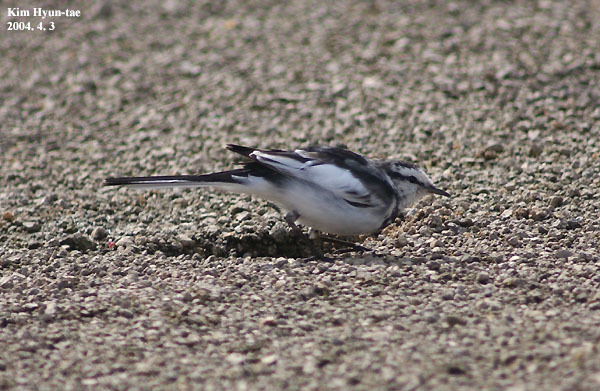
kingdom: Animalia
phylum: Chordata
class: Aves
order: Passeriformes
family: Motacillidae
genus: Motacilla
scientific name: Motacilla alba
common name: White wagtail
